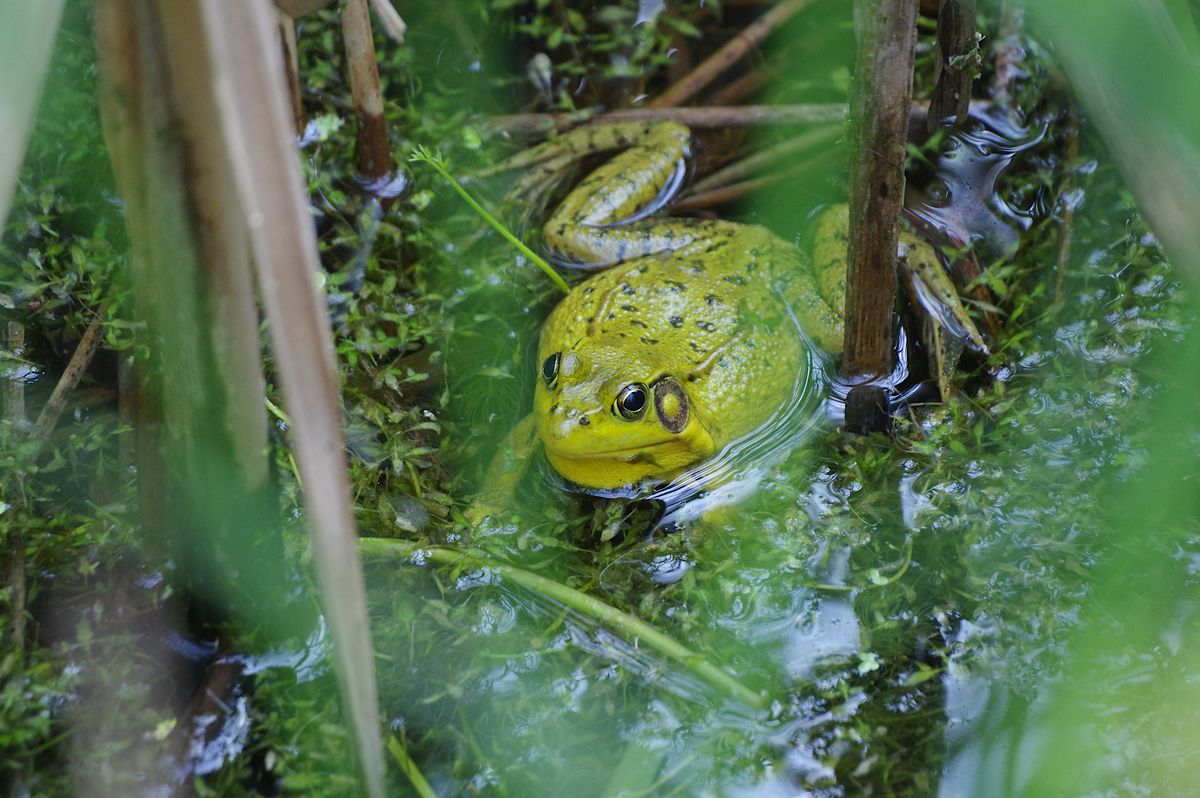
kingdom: Animalia
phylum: Chordata
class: Amphibia
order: Anura
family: Ranidae
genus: Lithobates
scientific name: Lithobates clamitans
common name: Green frog
